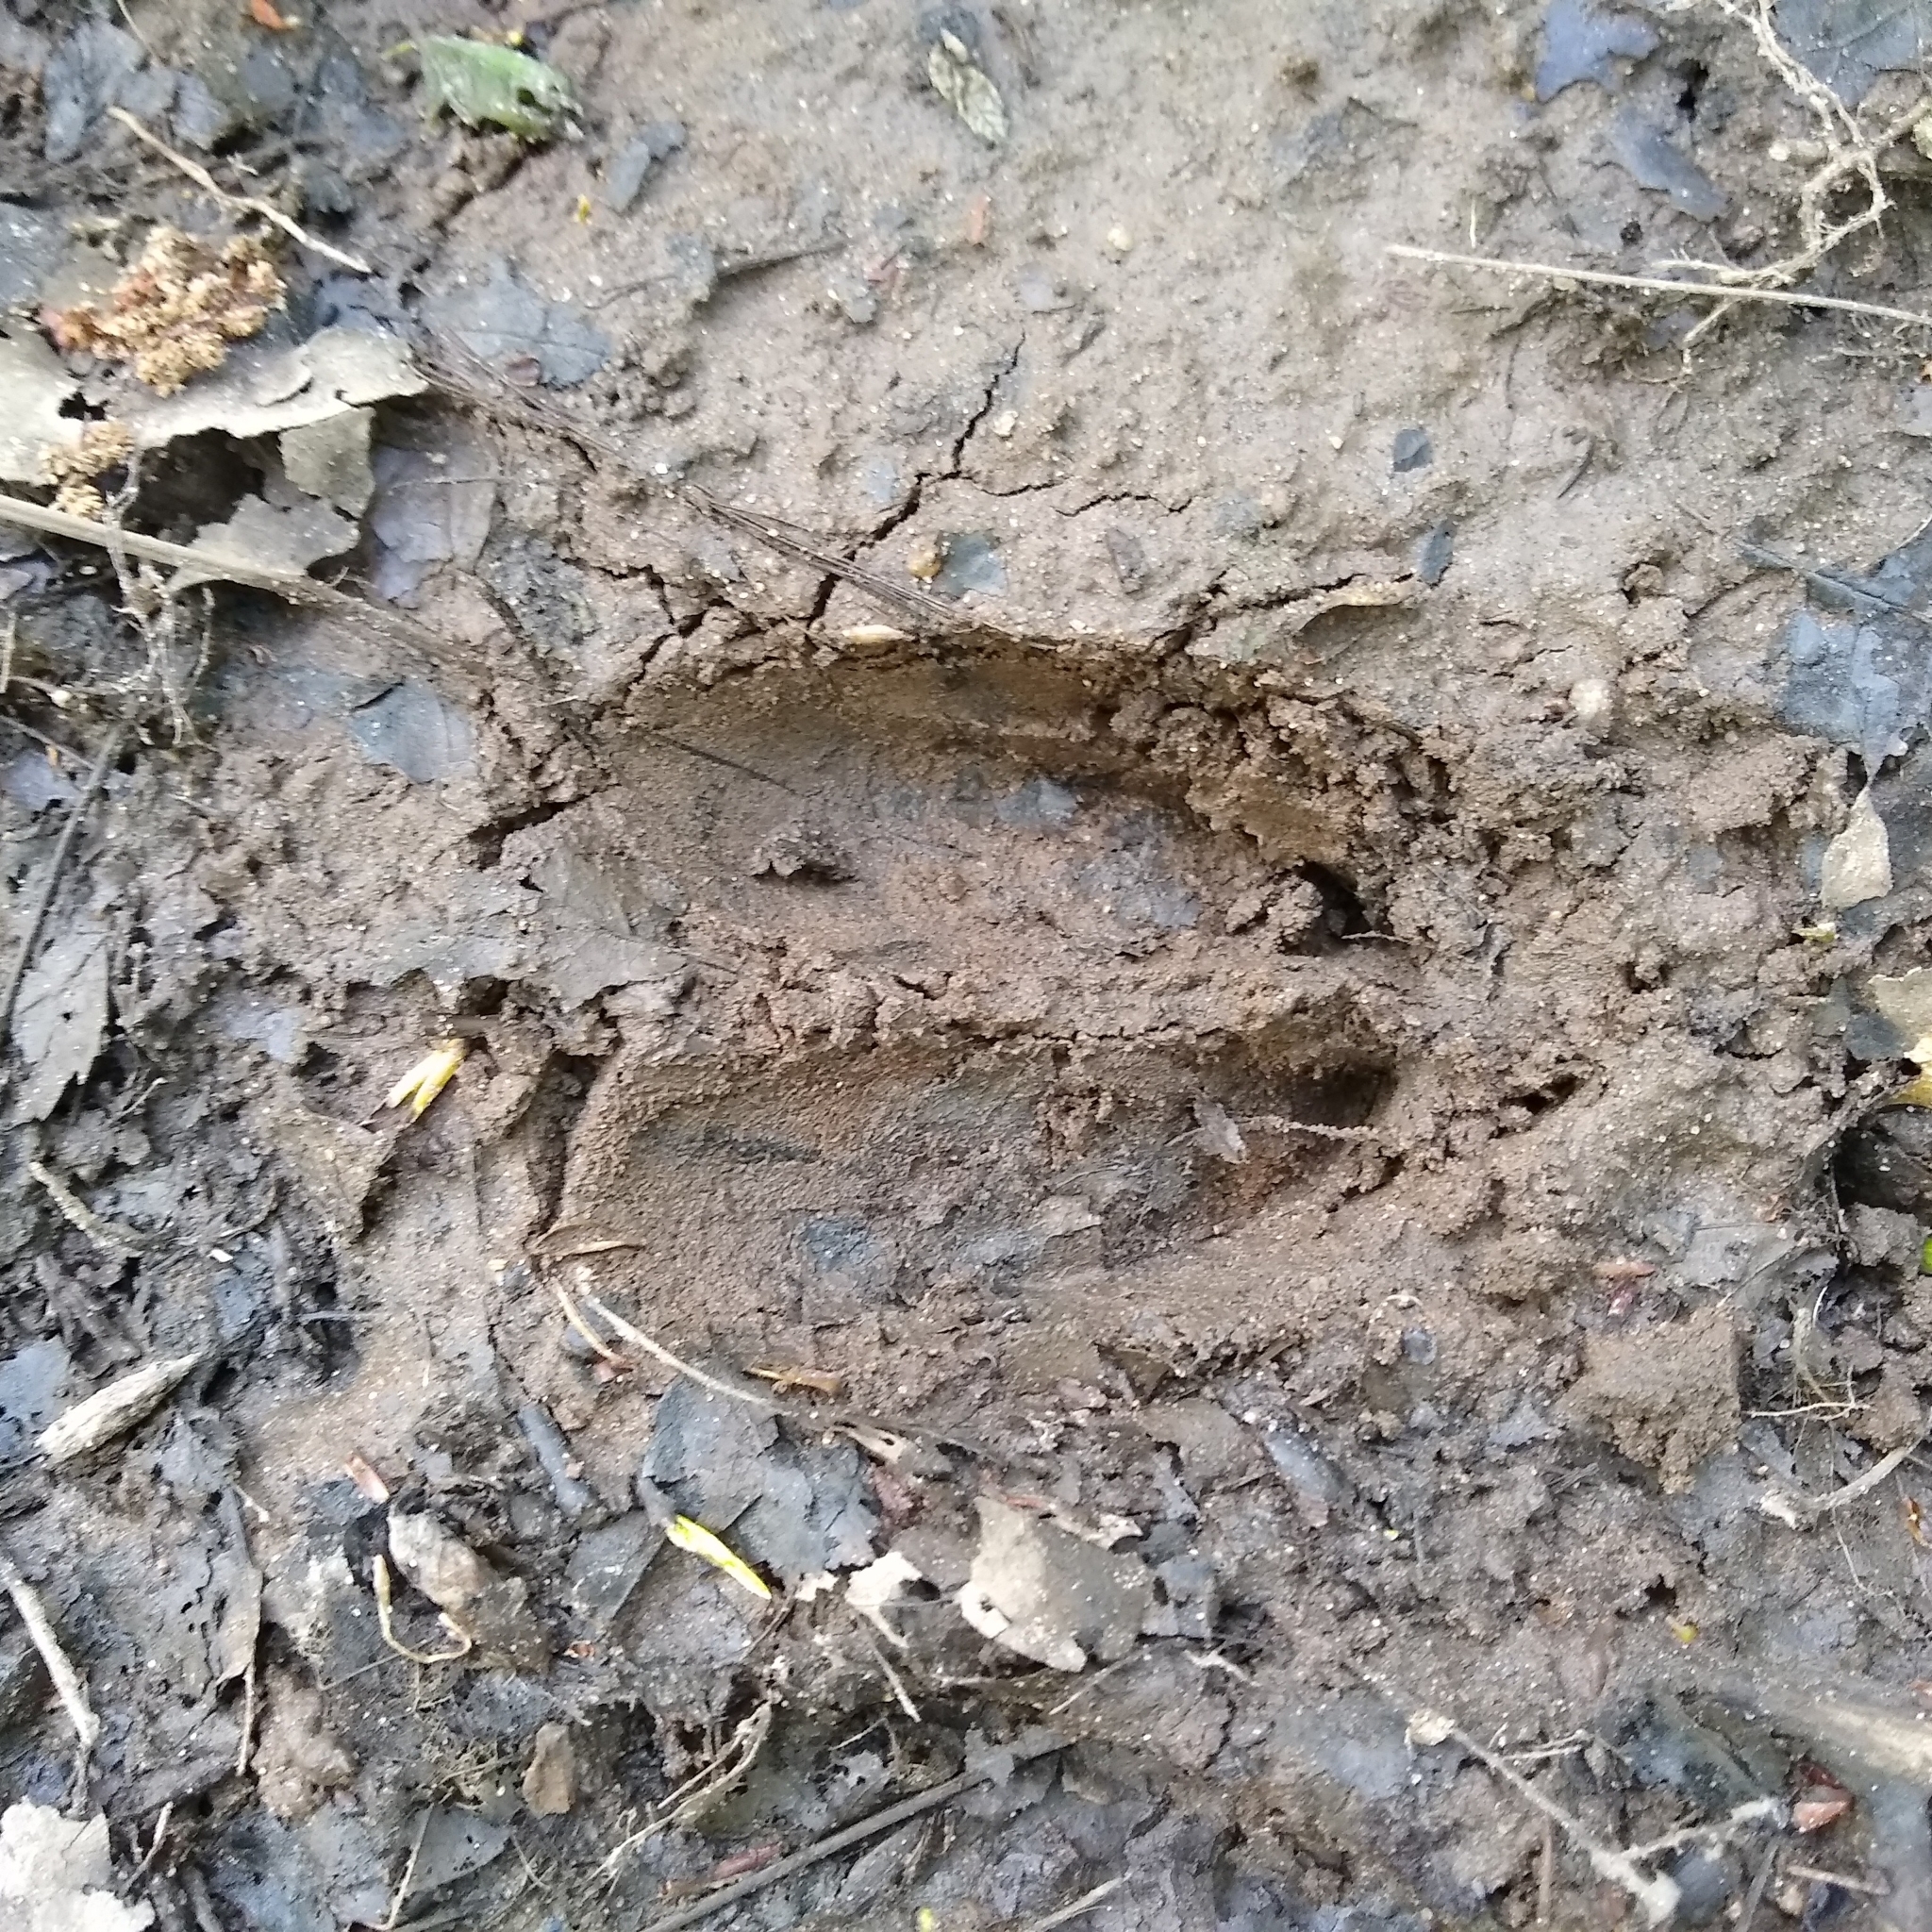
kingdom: Animalia
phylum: Chordata
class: Mammalia
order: Artiodactyla
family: Cervidae
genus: Odocoileus
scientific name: Odocoileus virginianus
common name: White-tailed deer
